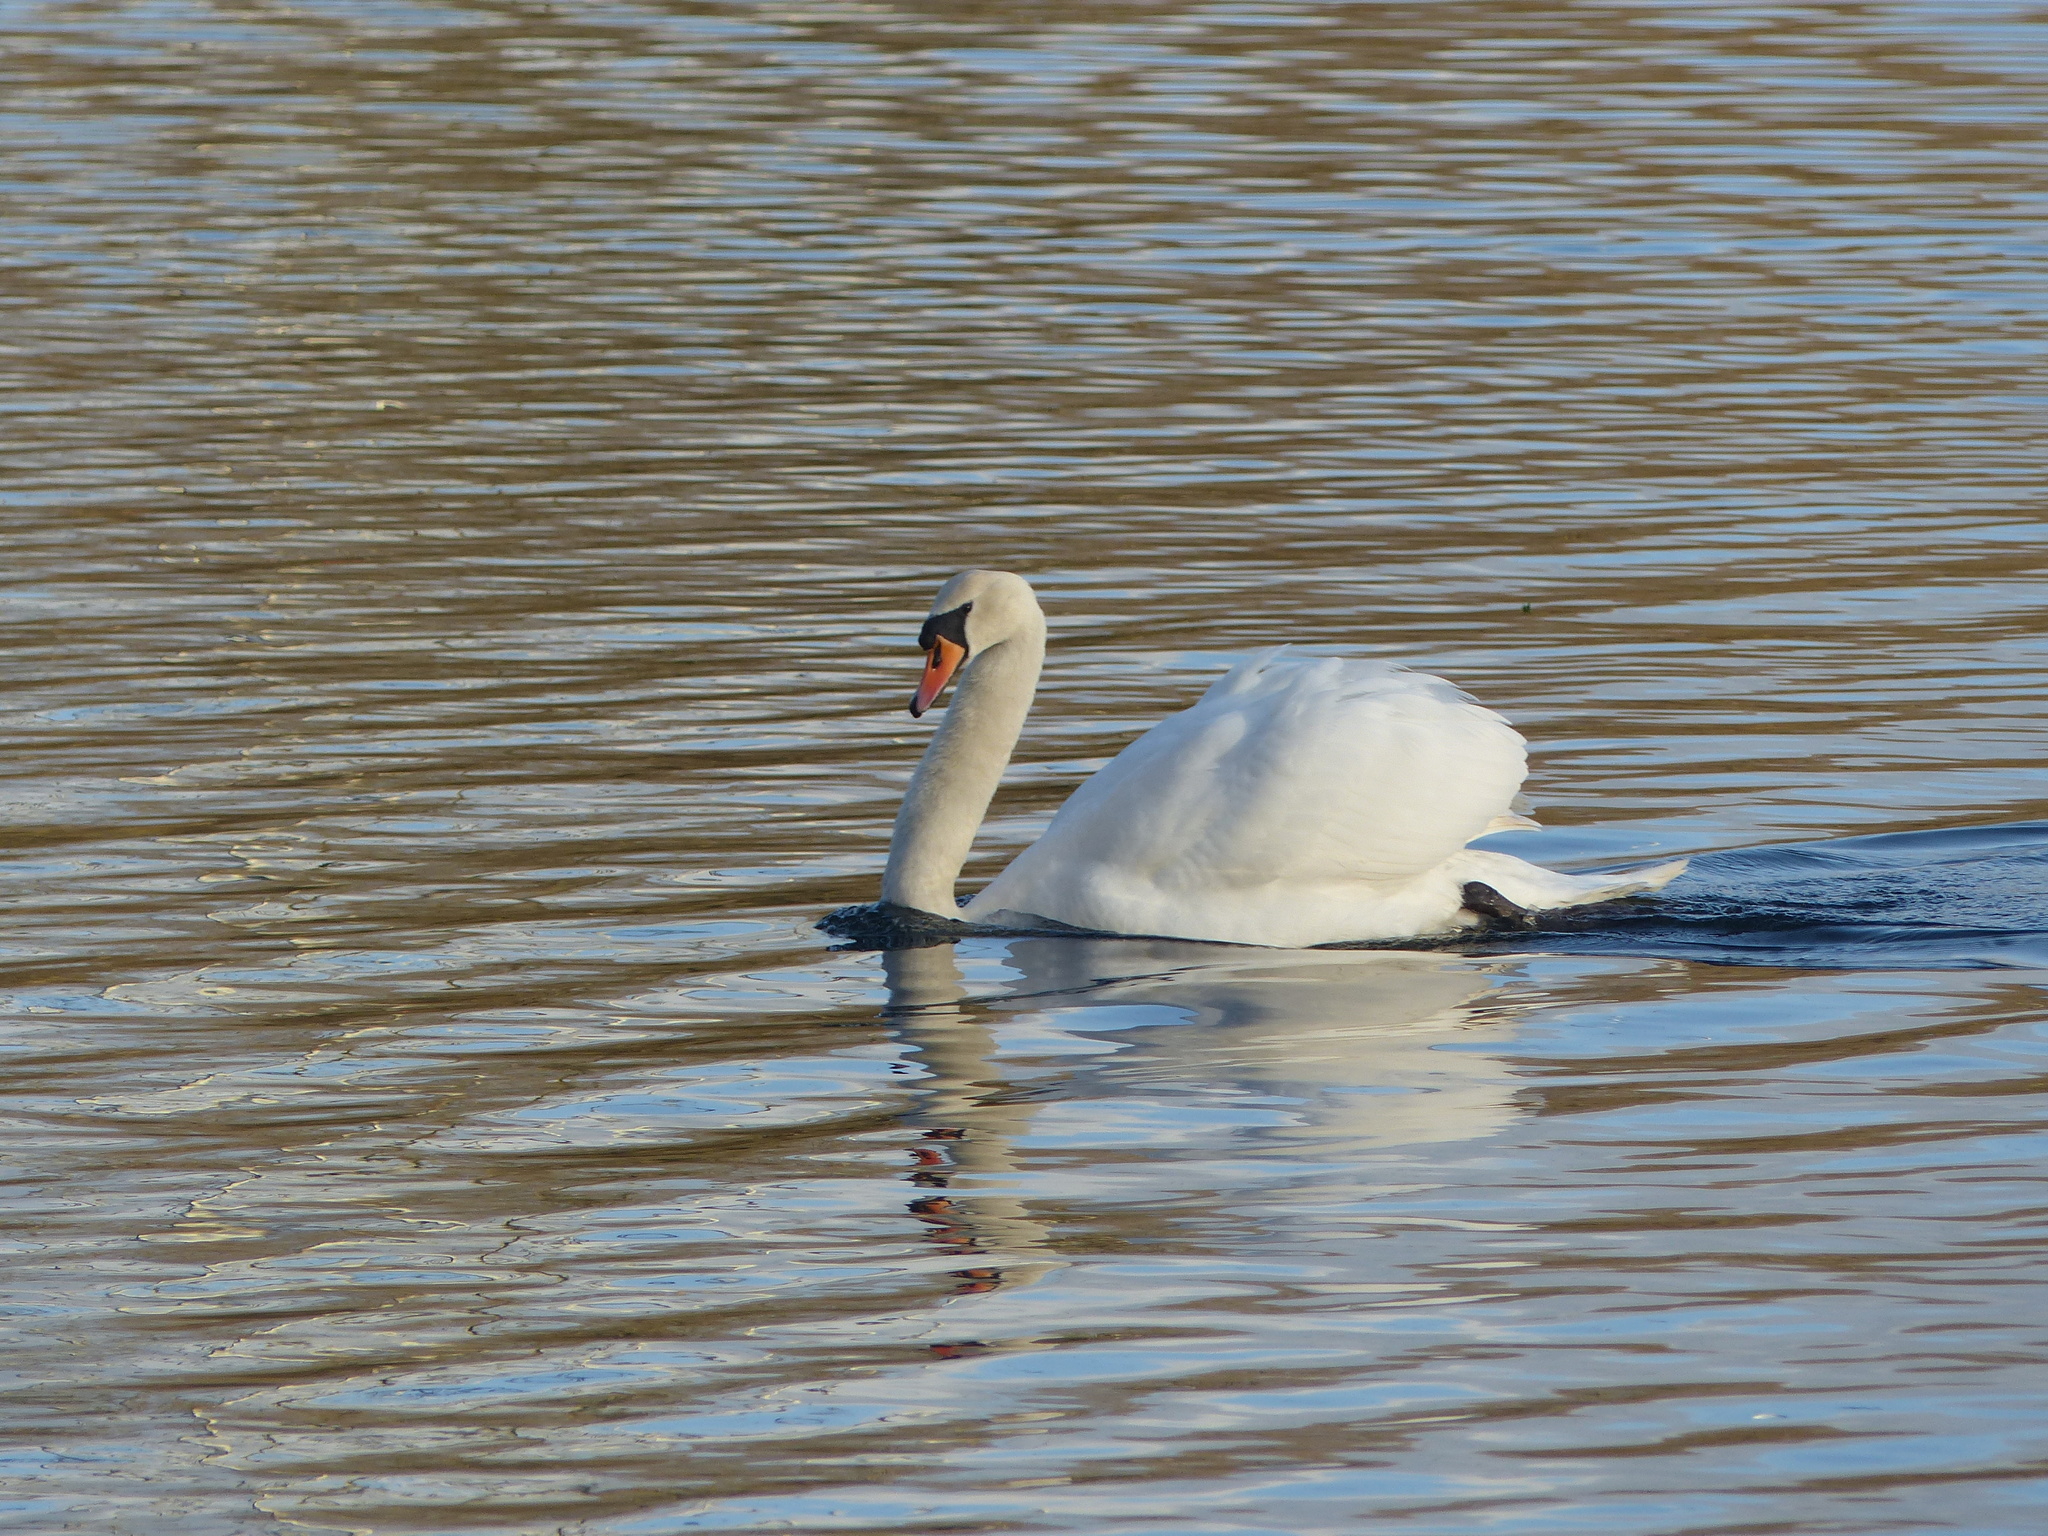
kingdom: Animalia
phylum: Chordata
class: Aves
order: Anseriformes
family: Anatidae
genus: Cygnus
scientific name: Cygnus olor
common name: Mute swan
